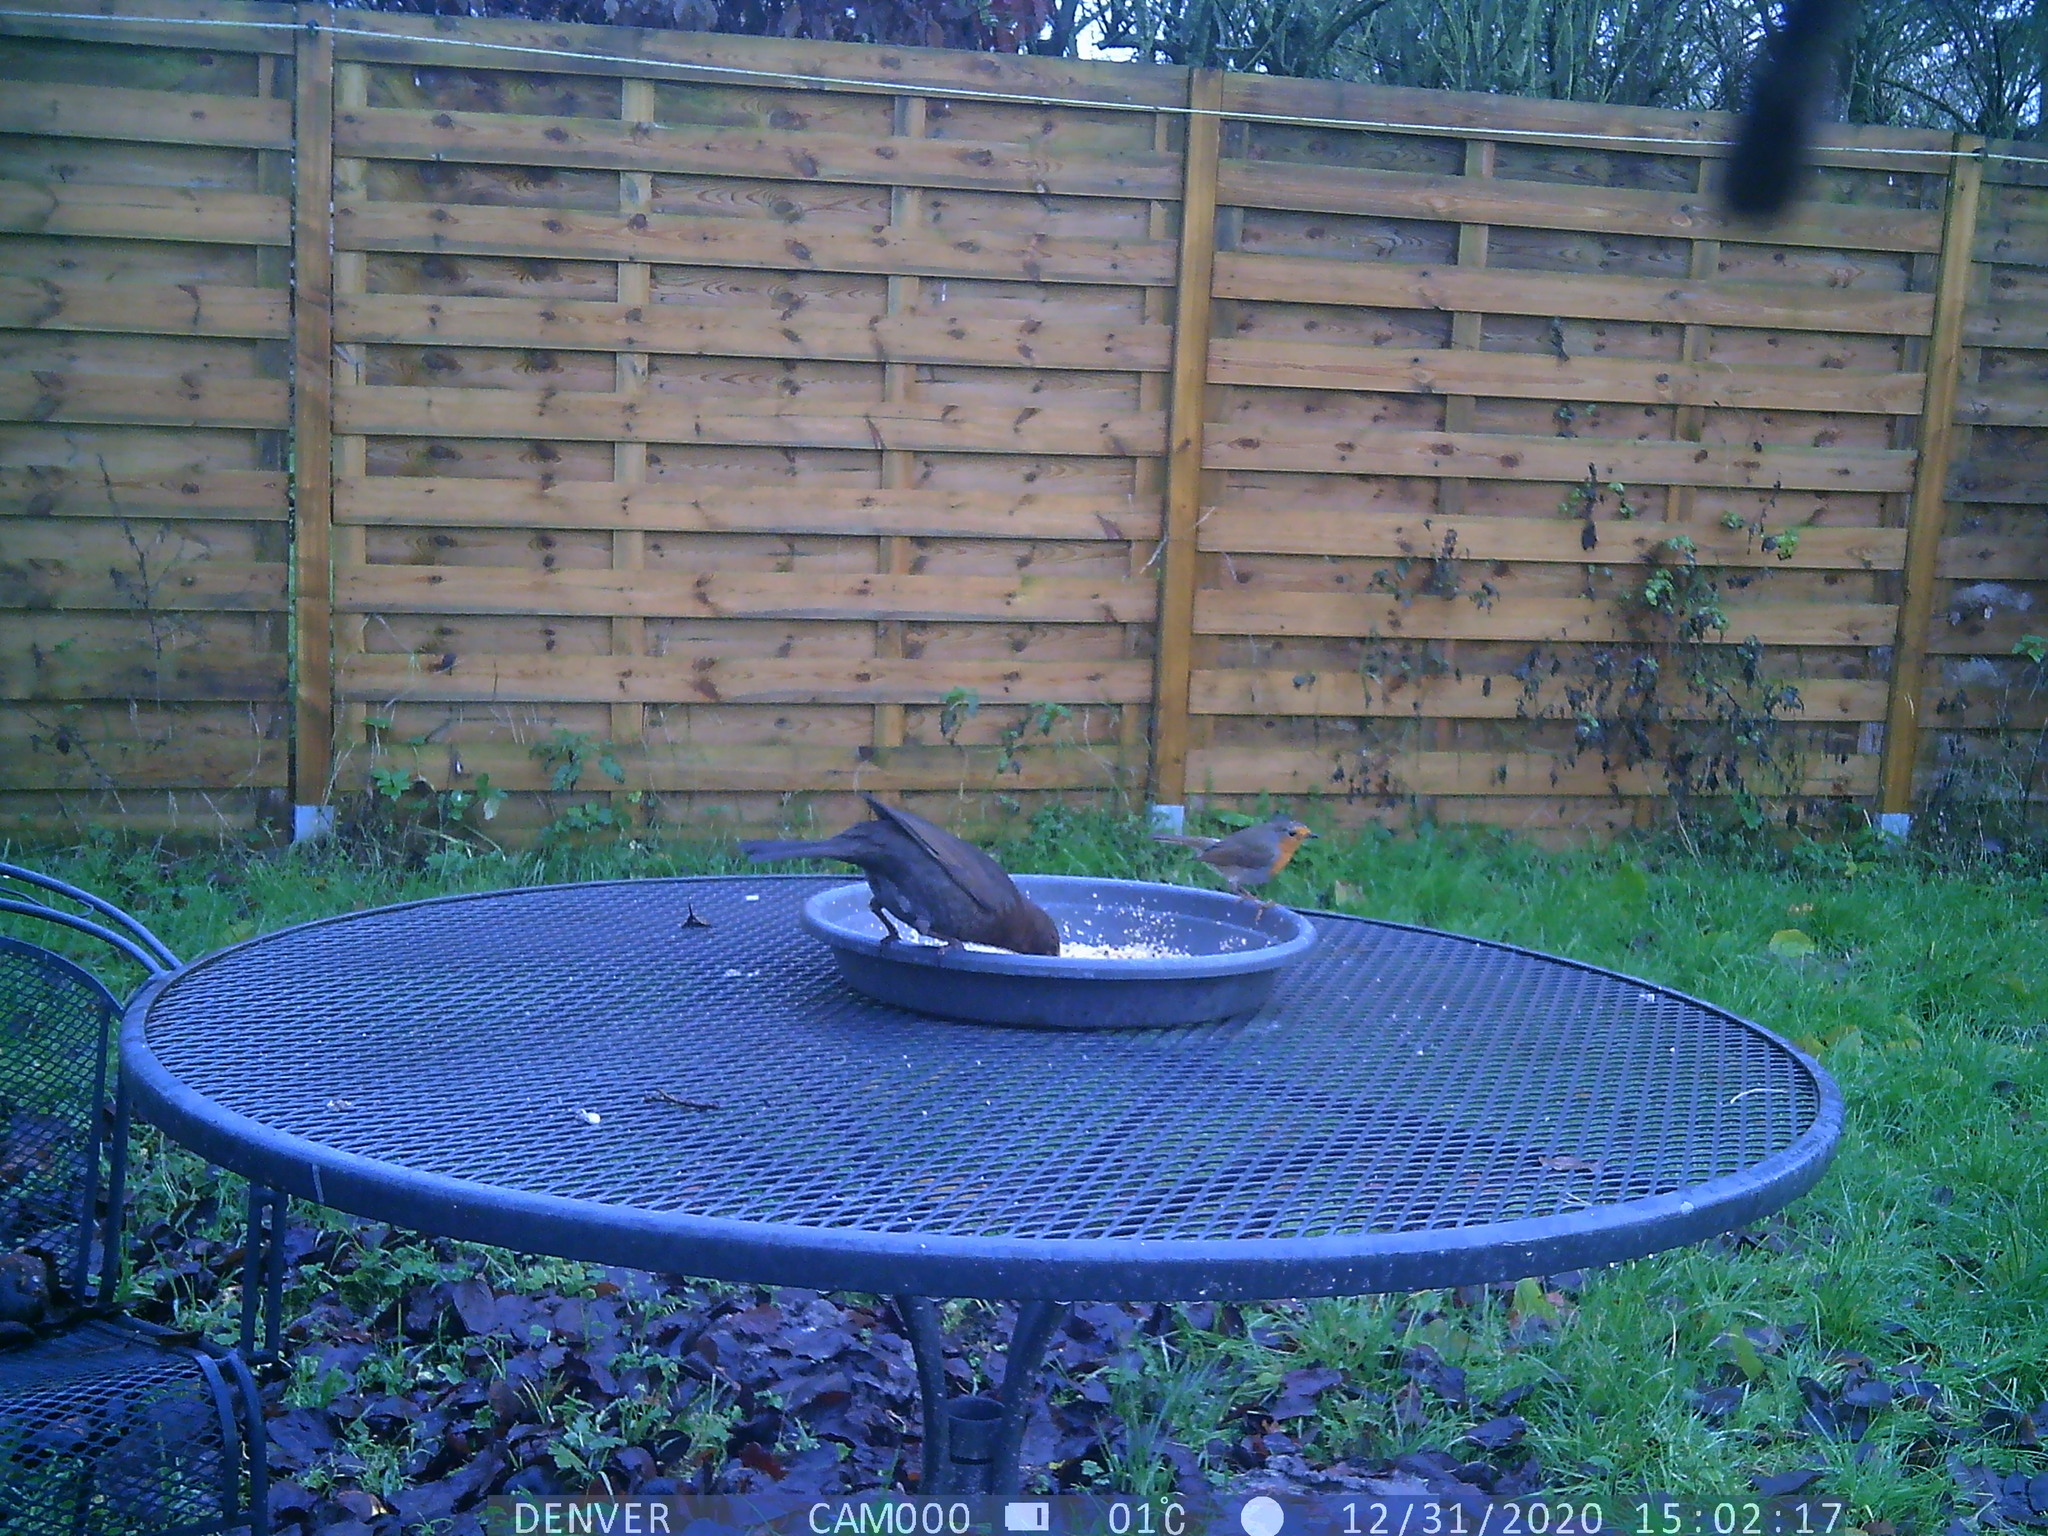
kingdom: Animalia
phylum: Chordata
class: Aves
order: Passeriformes
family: Muscicapidae
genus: Erithacus
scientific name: Erithacus rubecula
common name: European robin
